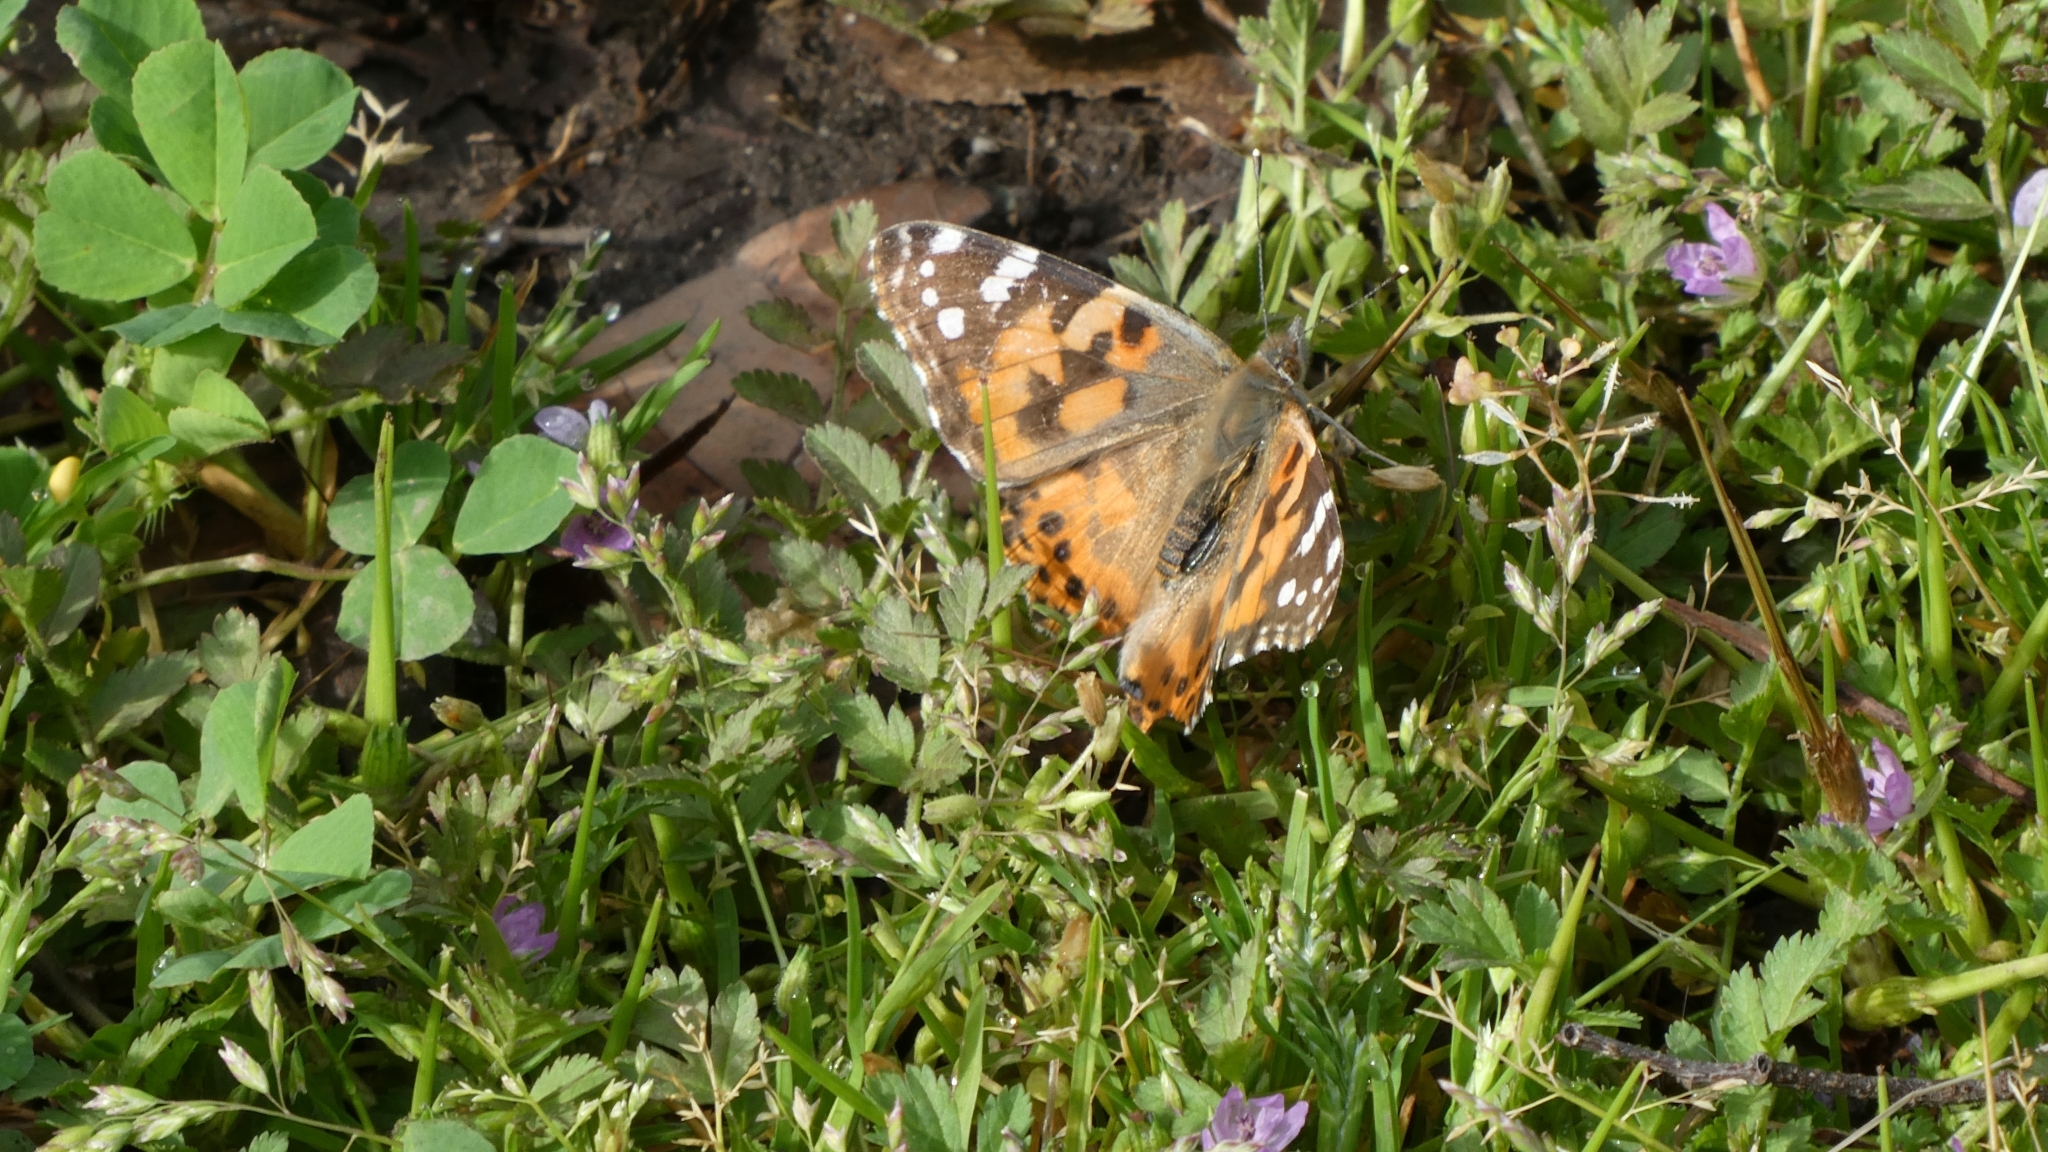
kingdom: Animalia
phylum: Arthropoda
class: Insecta
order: Lepidoptera
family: Nymphalidae
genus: Vanessa
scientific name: Vanessa cardui
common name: Painted lady
